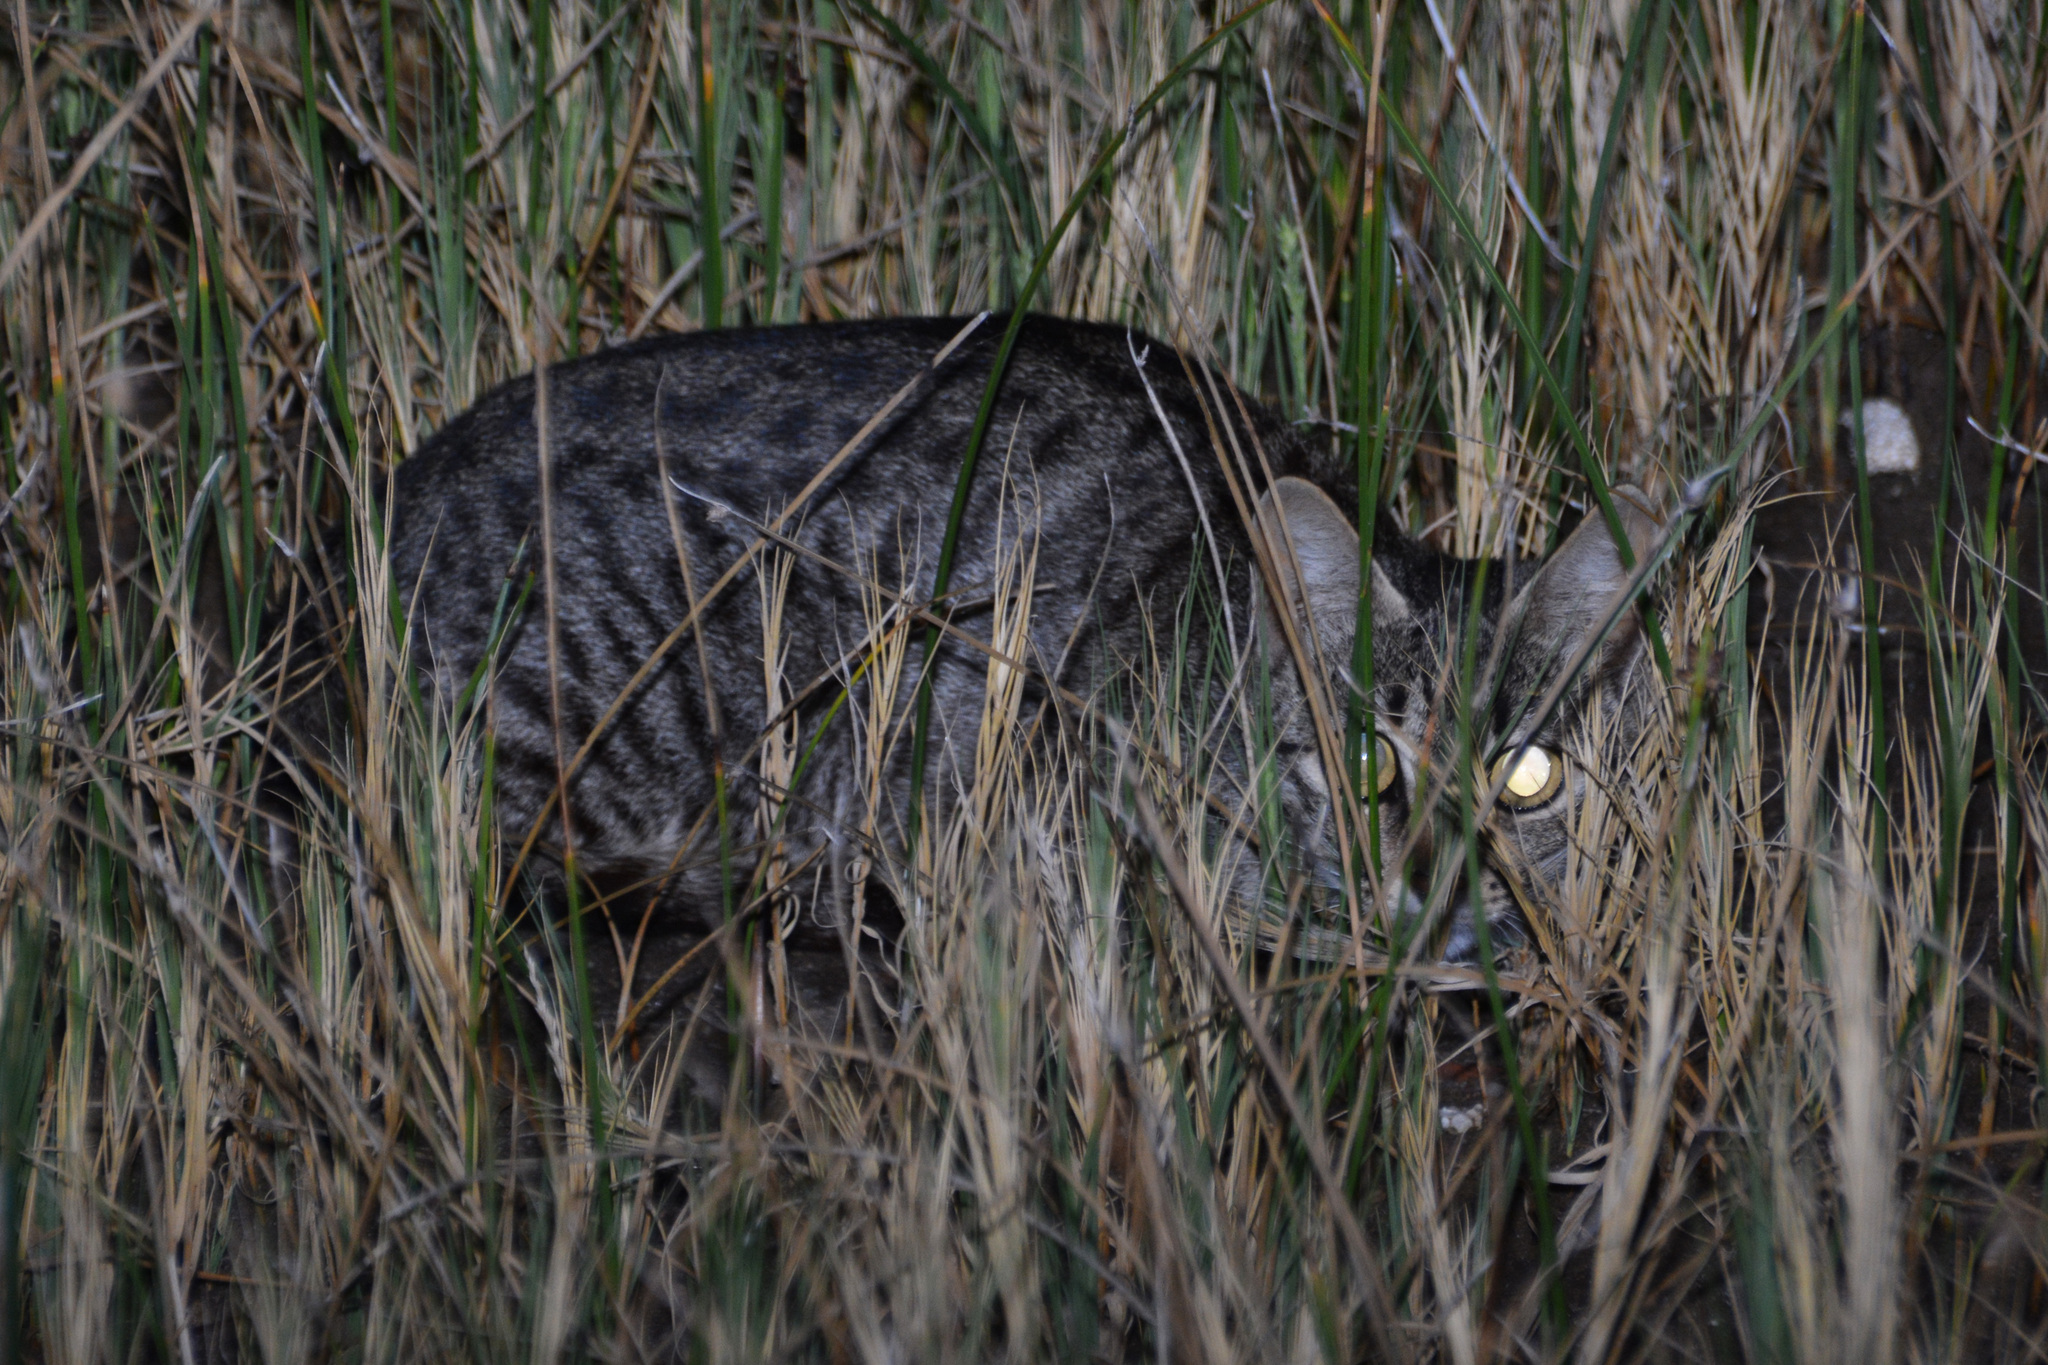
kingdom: Animalia
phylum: Chordata
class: Mammalia
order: Carnivora
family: Felidae
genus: Felis
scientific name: Felis catus
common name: Domestic cat
